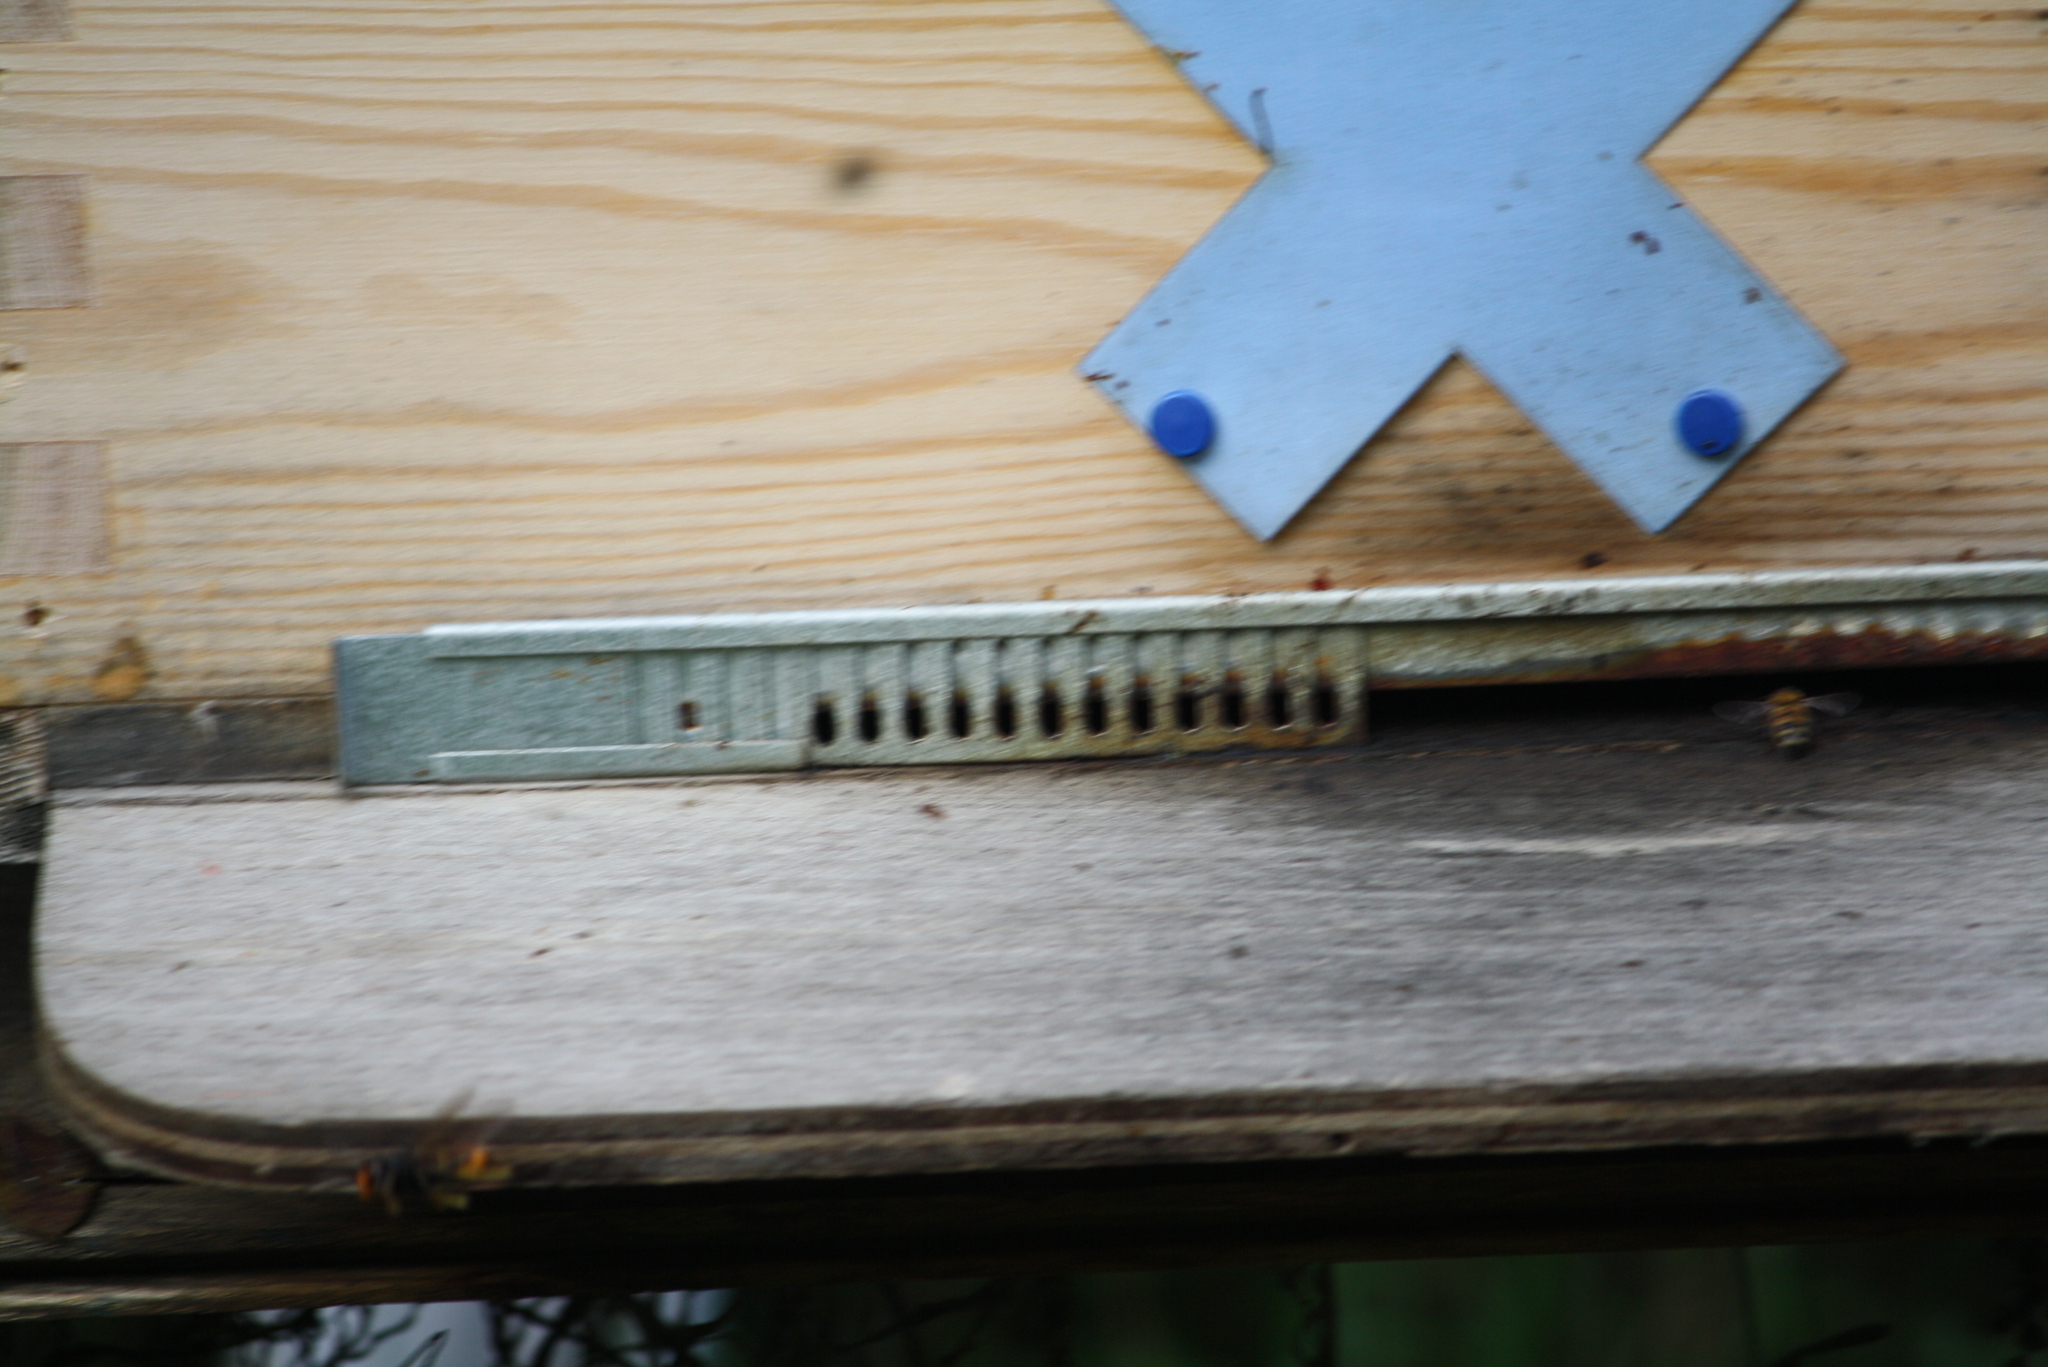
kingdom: Animalia
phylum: Arthropoda
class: Insecta
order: Hymenoptera
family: Vespidae
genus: Vespa
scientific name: Vespa velutina
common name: Asian hornet
